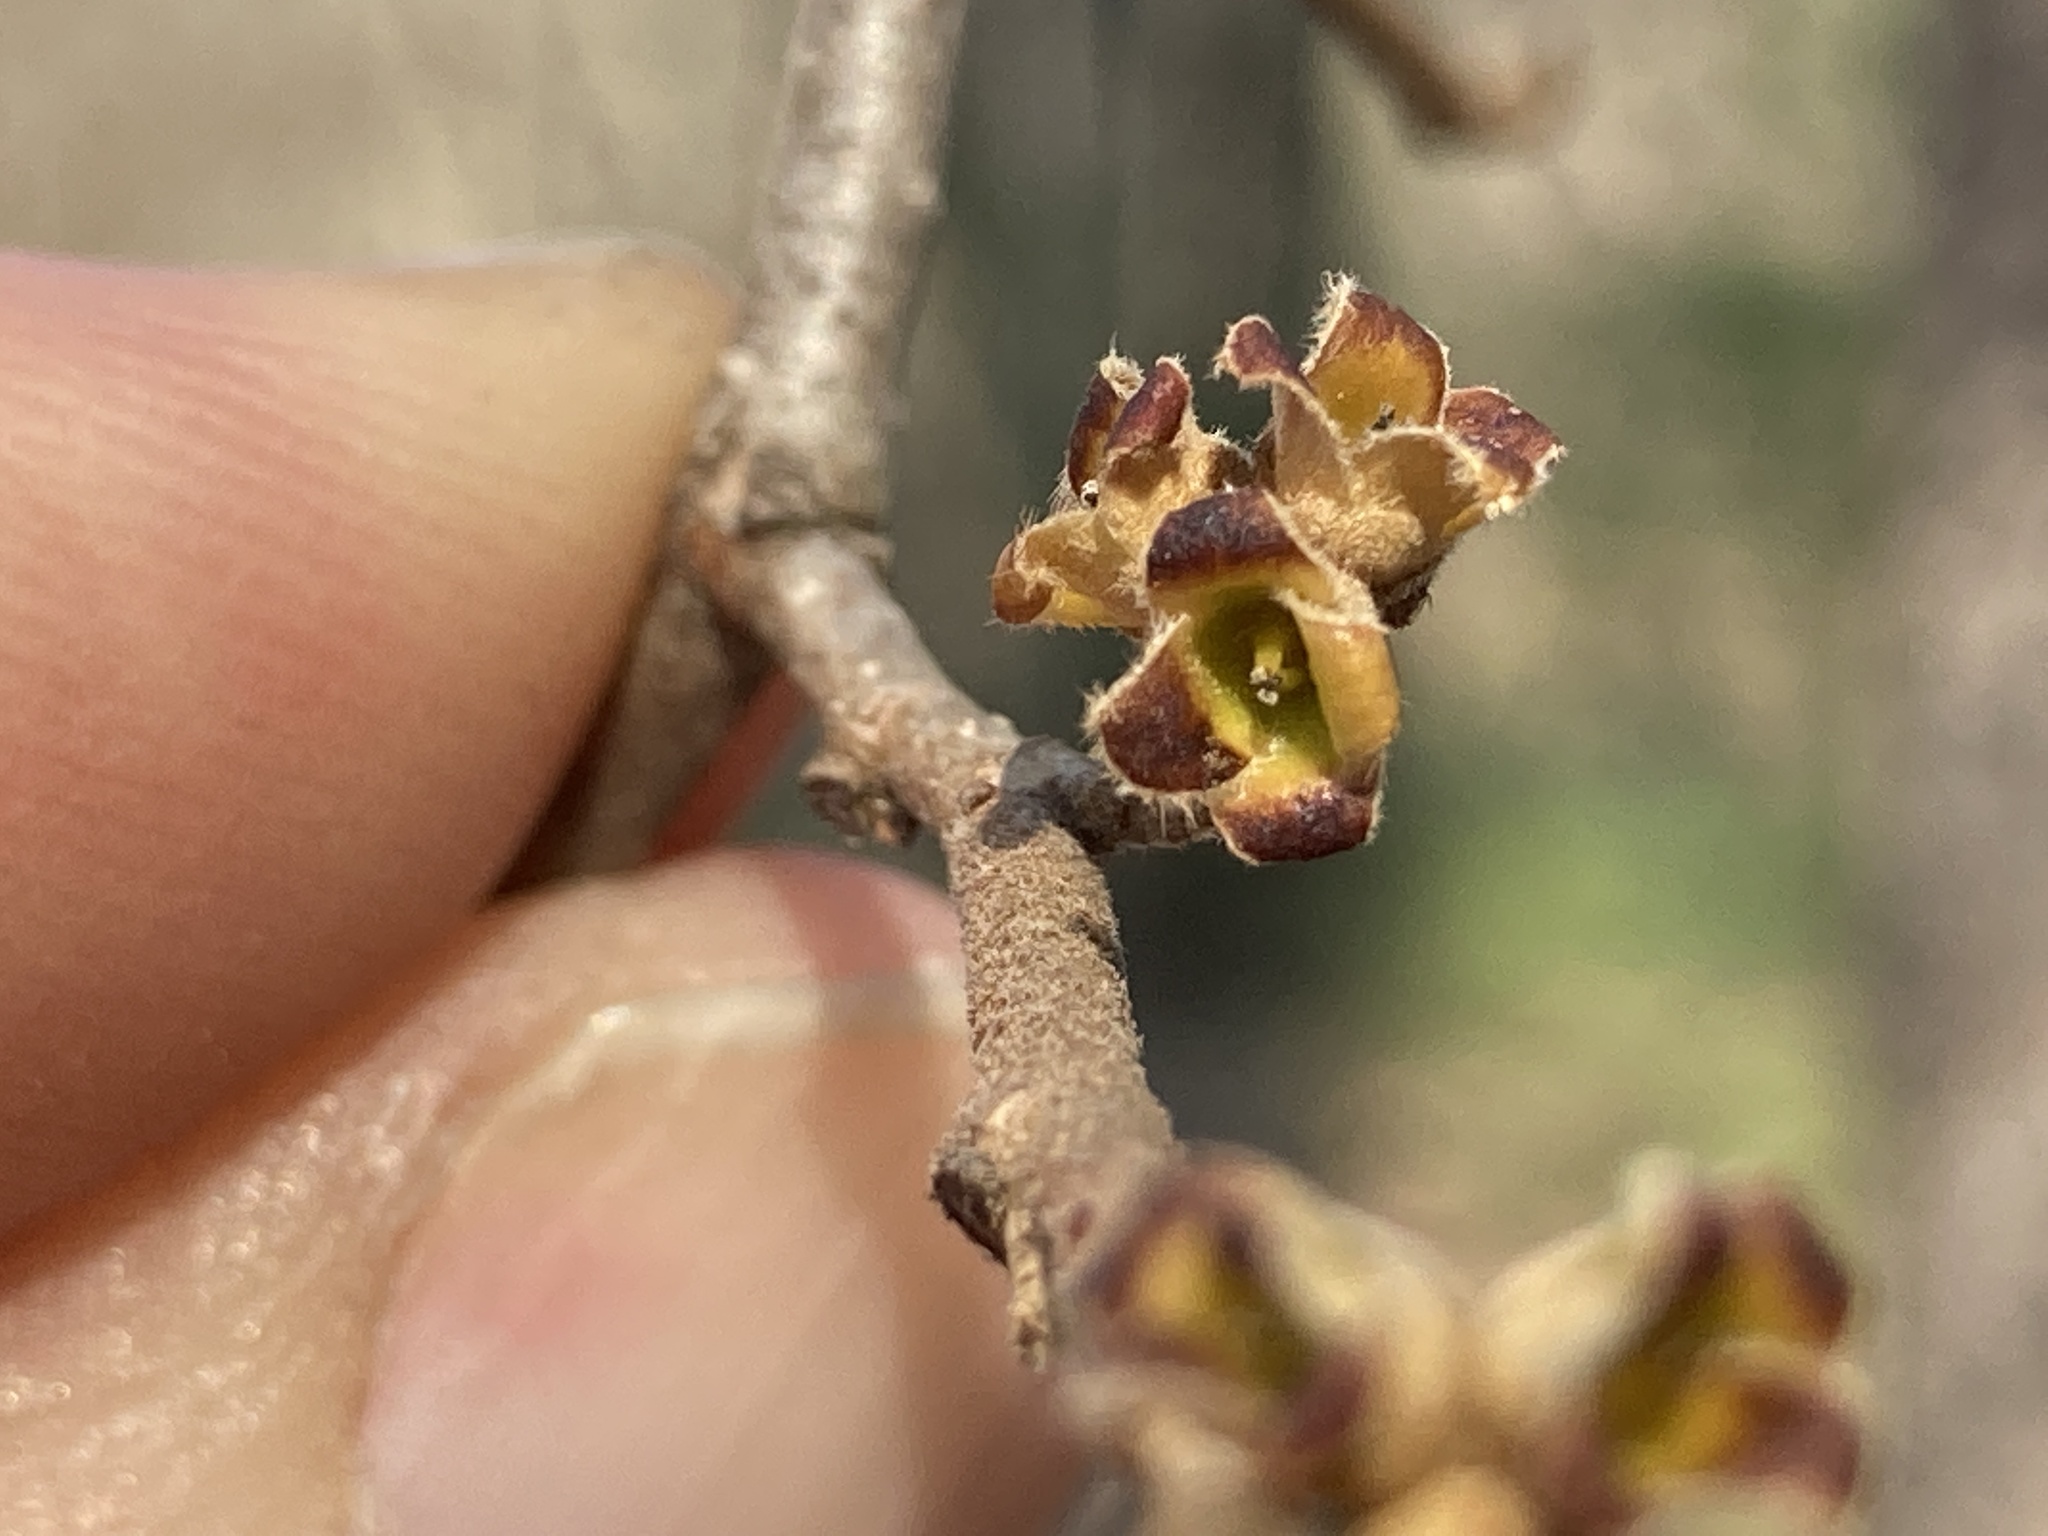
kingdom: Plantae
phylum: Tracheophyta
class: Magnoliopsida
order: Saxifragales
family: Hamamelidaceae
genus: Hamamelis
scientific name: Hamamelis virginiana
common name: Witch-hazel
